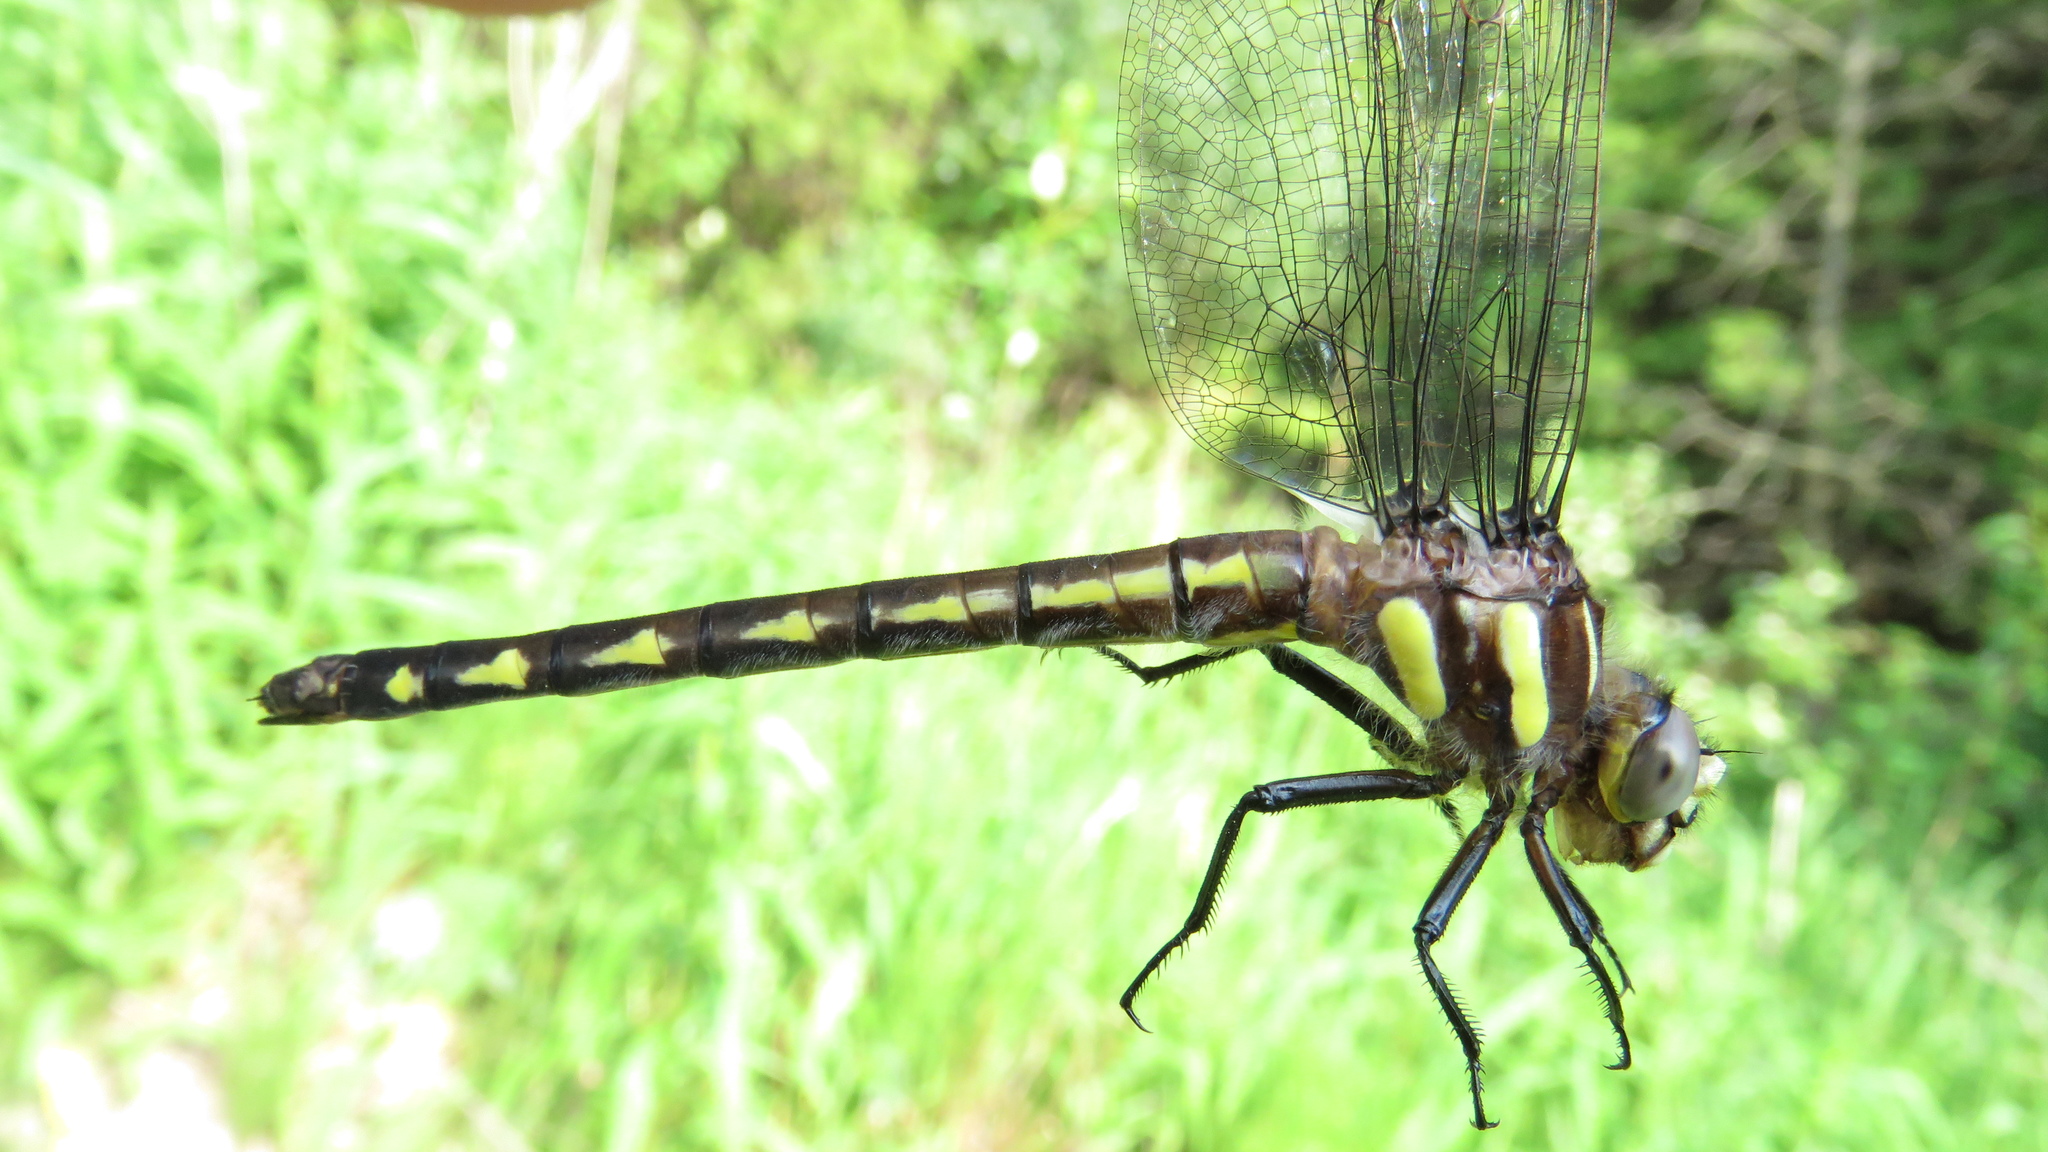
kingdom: Animalia
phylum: Arthropoda
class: Insecta
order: Odonata
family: Cordulegastridae
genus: Cordulegaster
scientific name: Cordulegaster diastatops
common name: Delta-spotted spiketail
